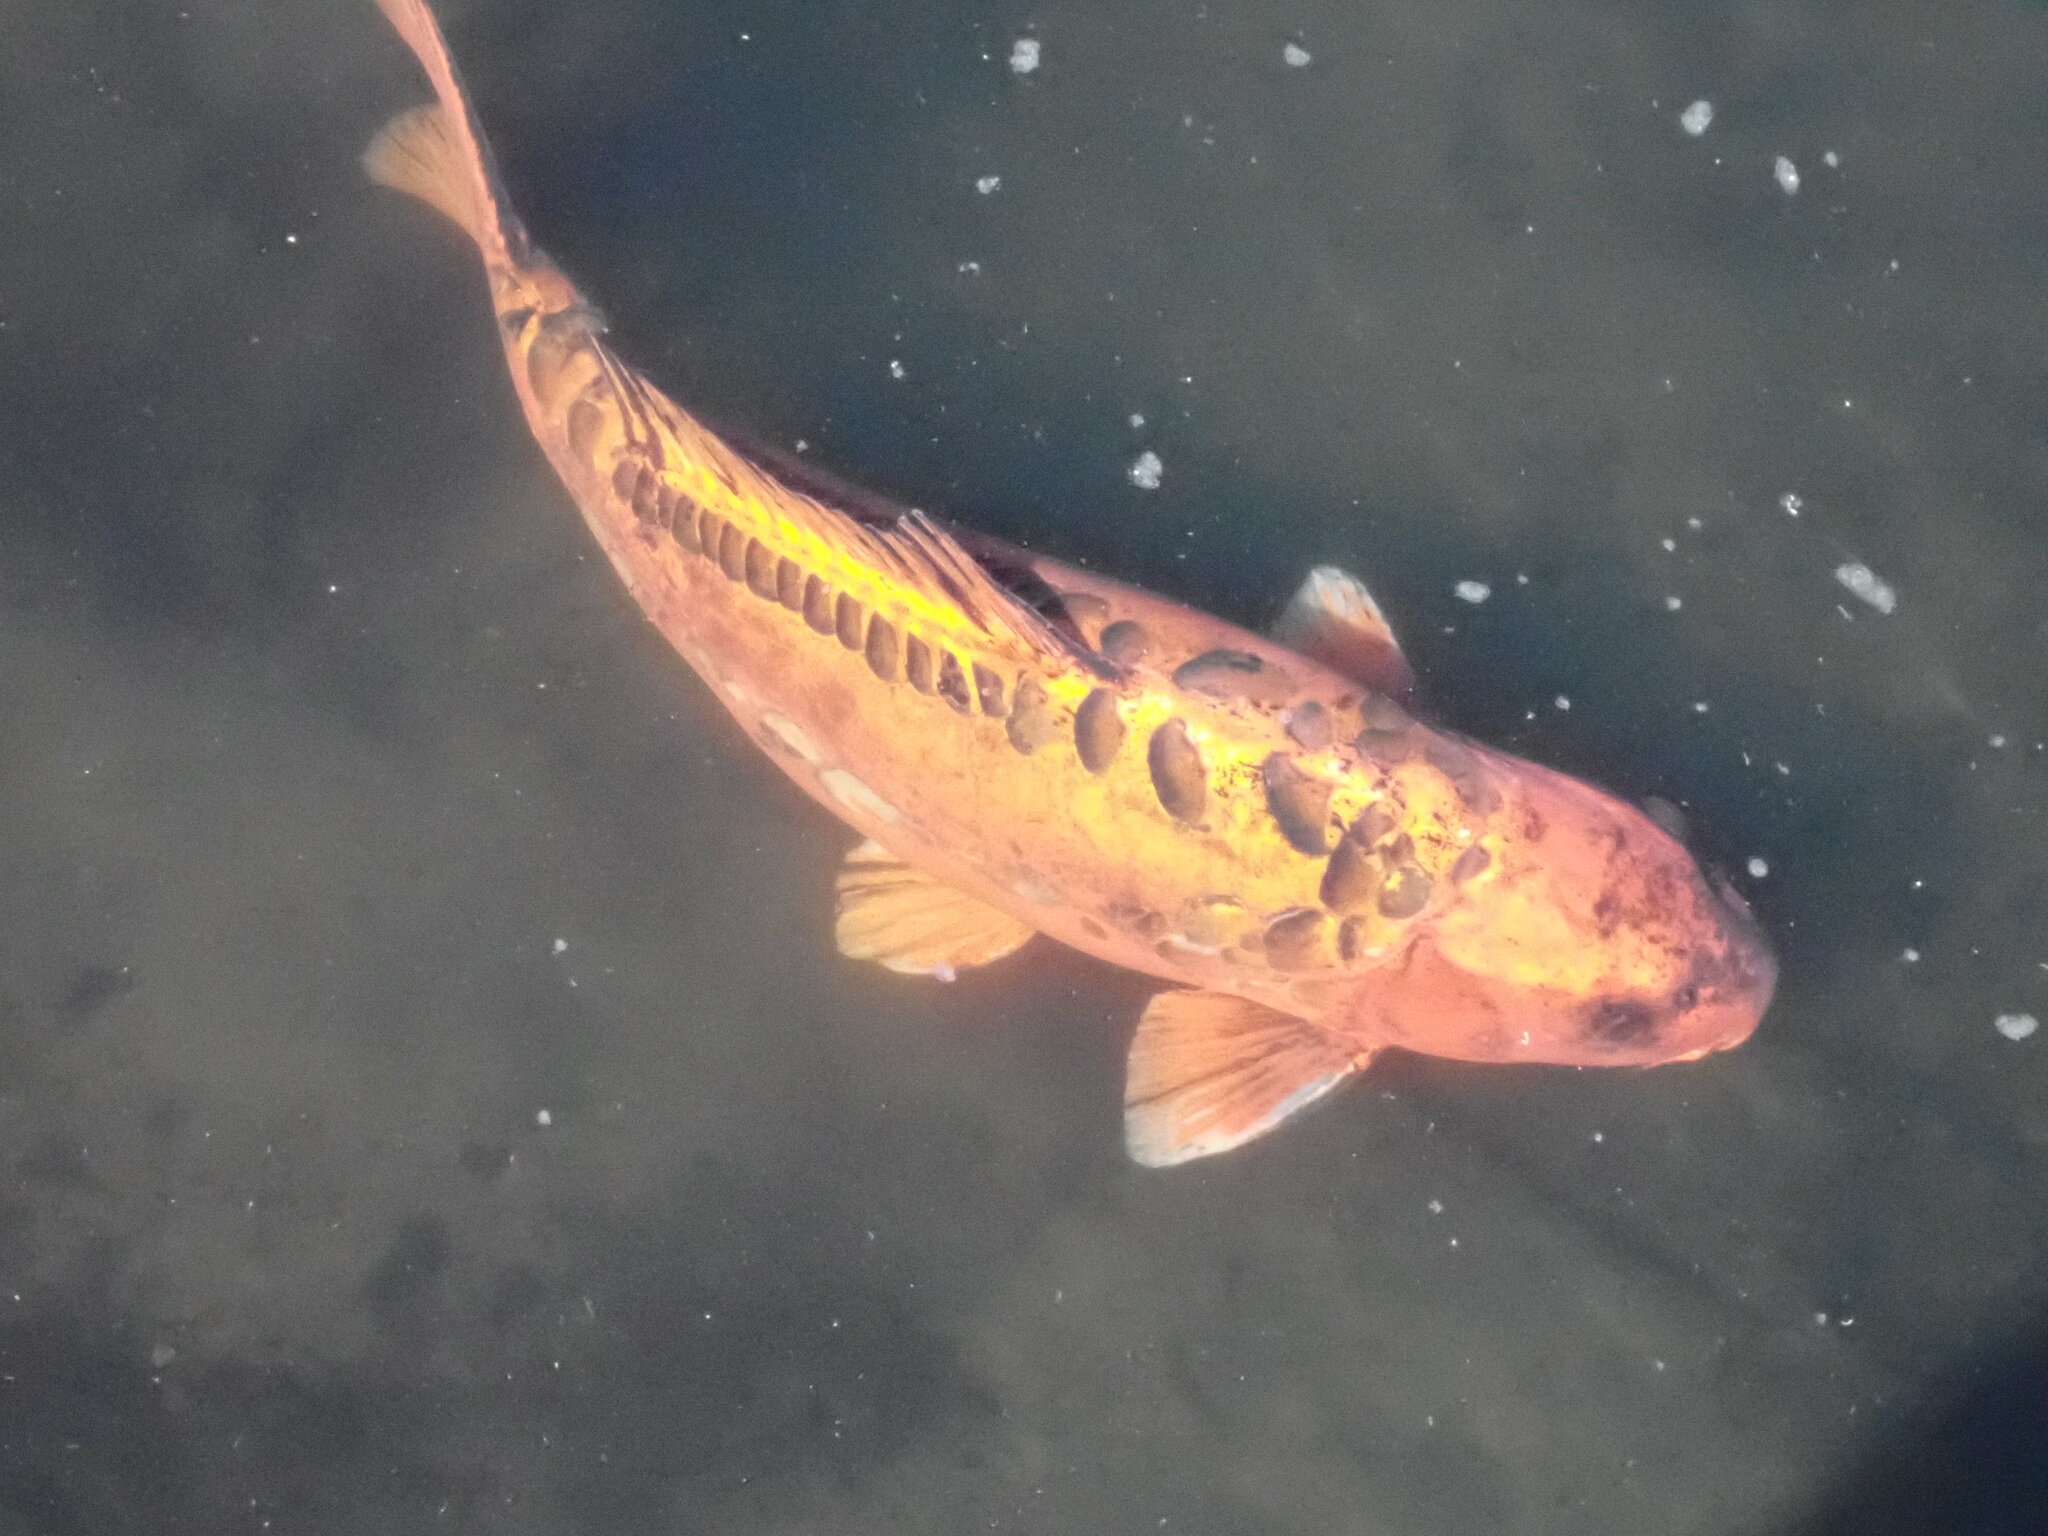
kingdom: Animalia
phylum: Chordata
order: Cypriniformes
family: Cyprinidae
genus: Cyprinus
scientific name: Cyprinus rubrofuscus
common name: Koi
